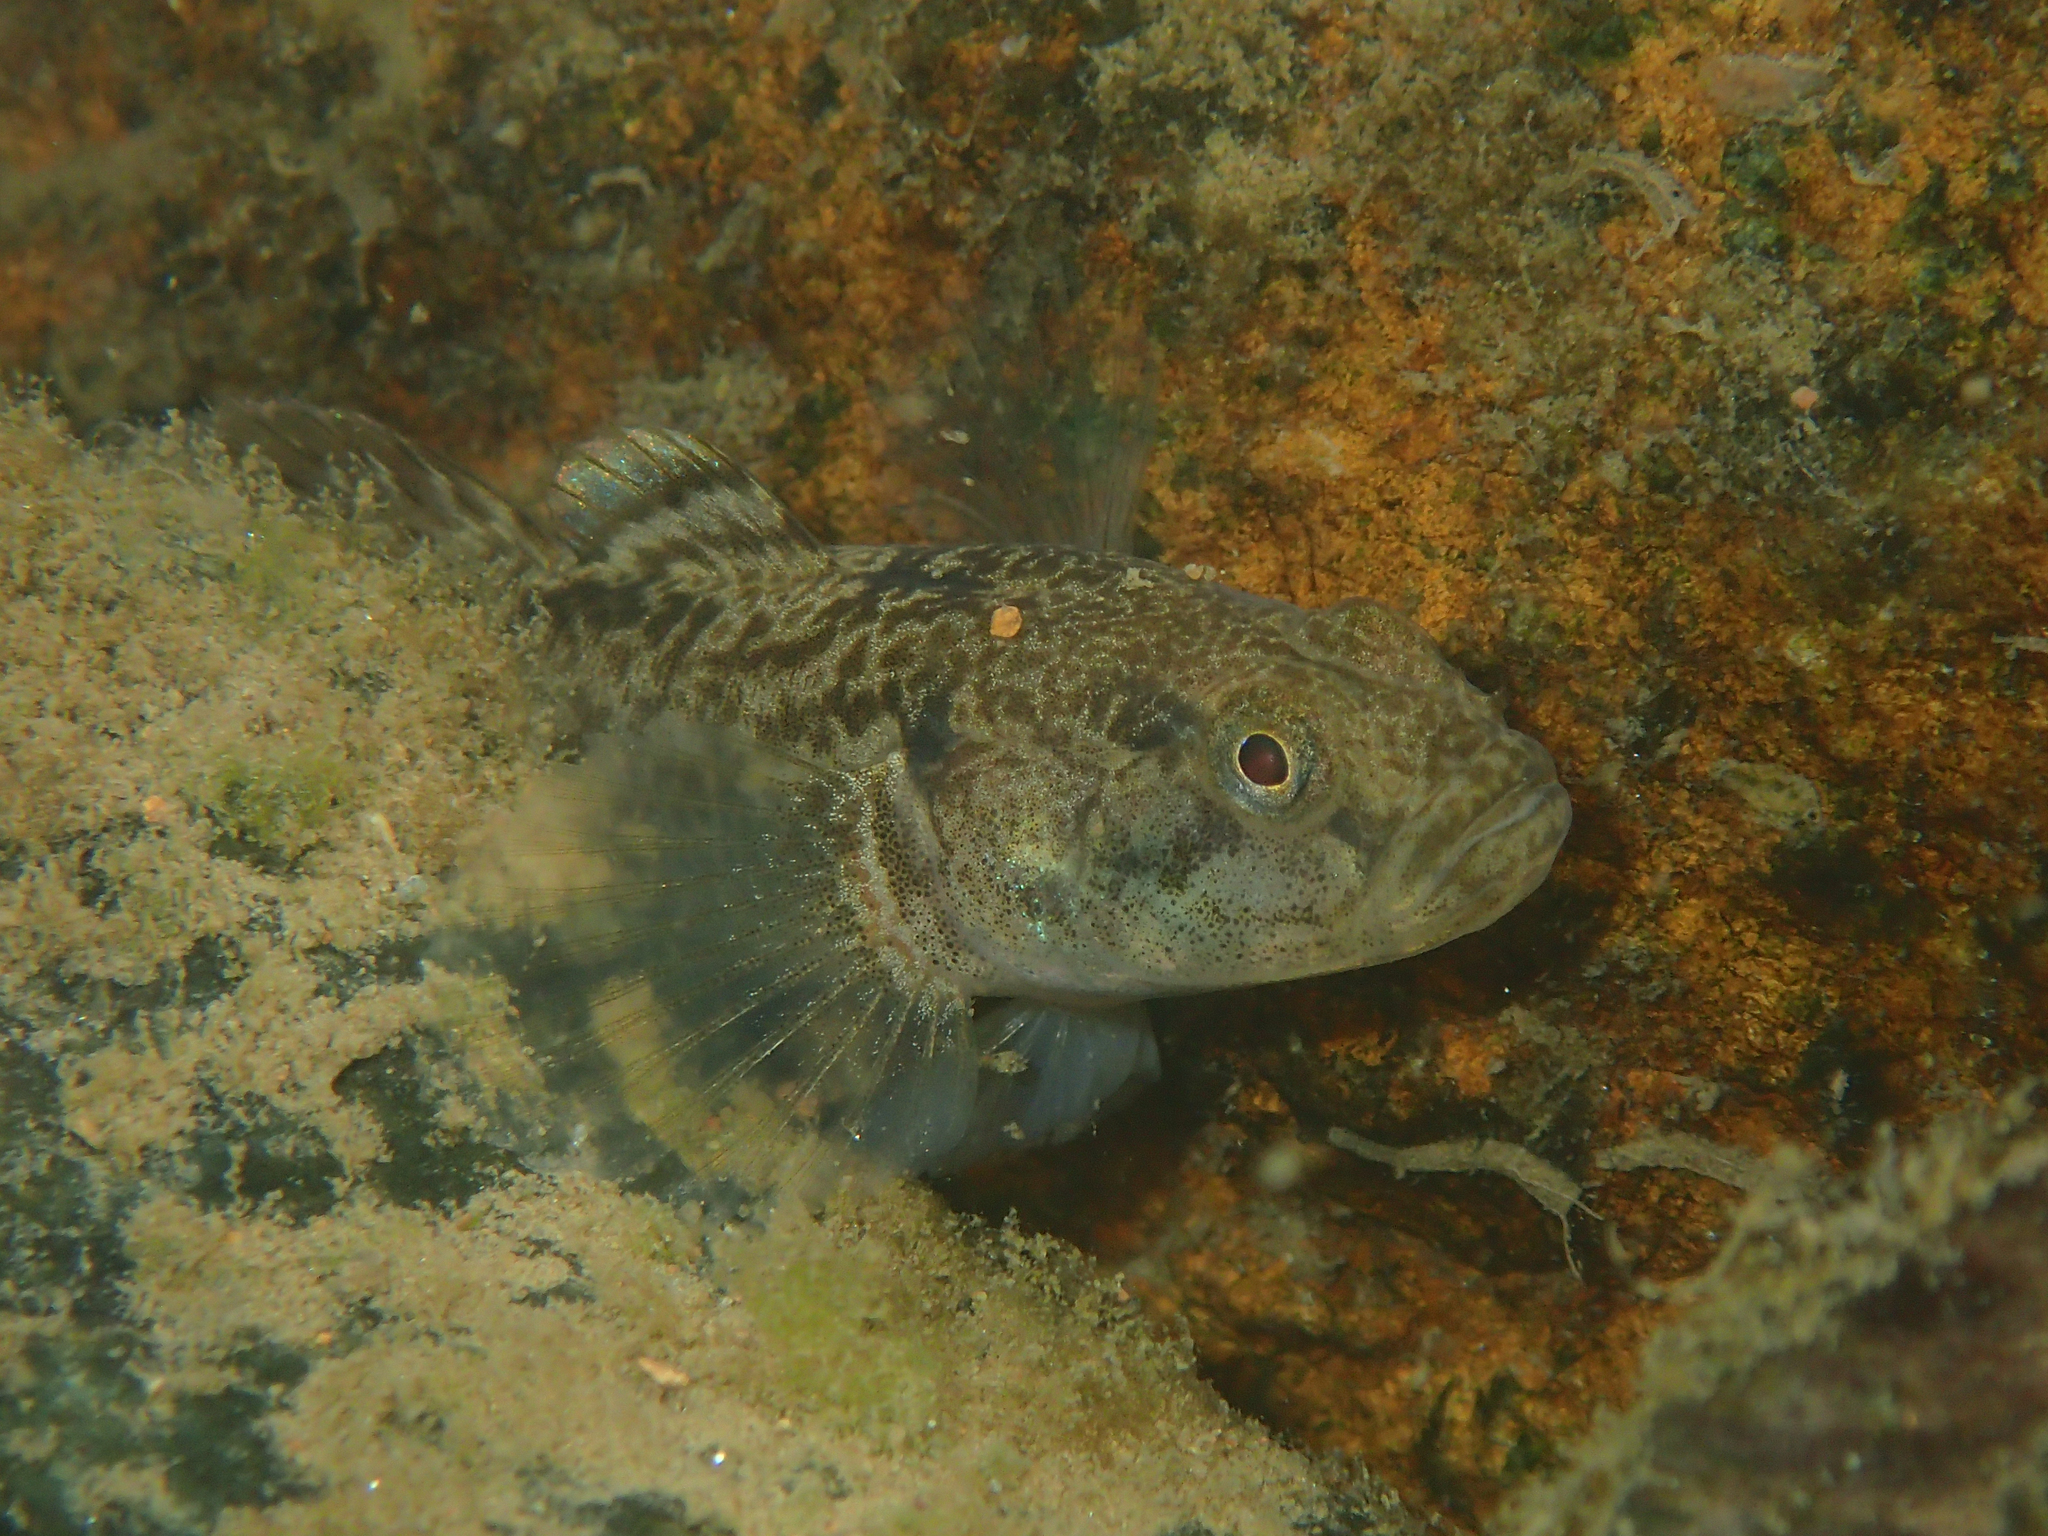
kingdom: Animalia
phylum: Chordata
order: Perciformes
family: Gobiidae
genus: Padogobius
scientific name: Padogobius bonelli
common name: Padanian goby
